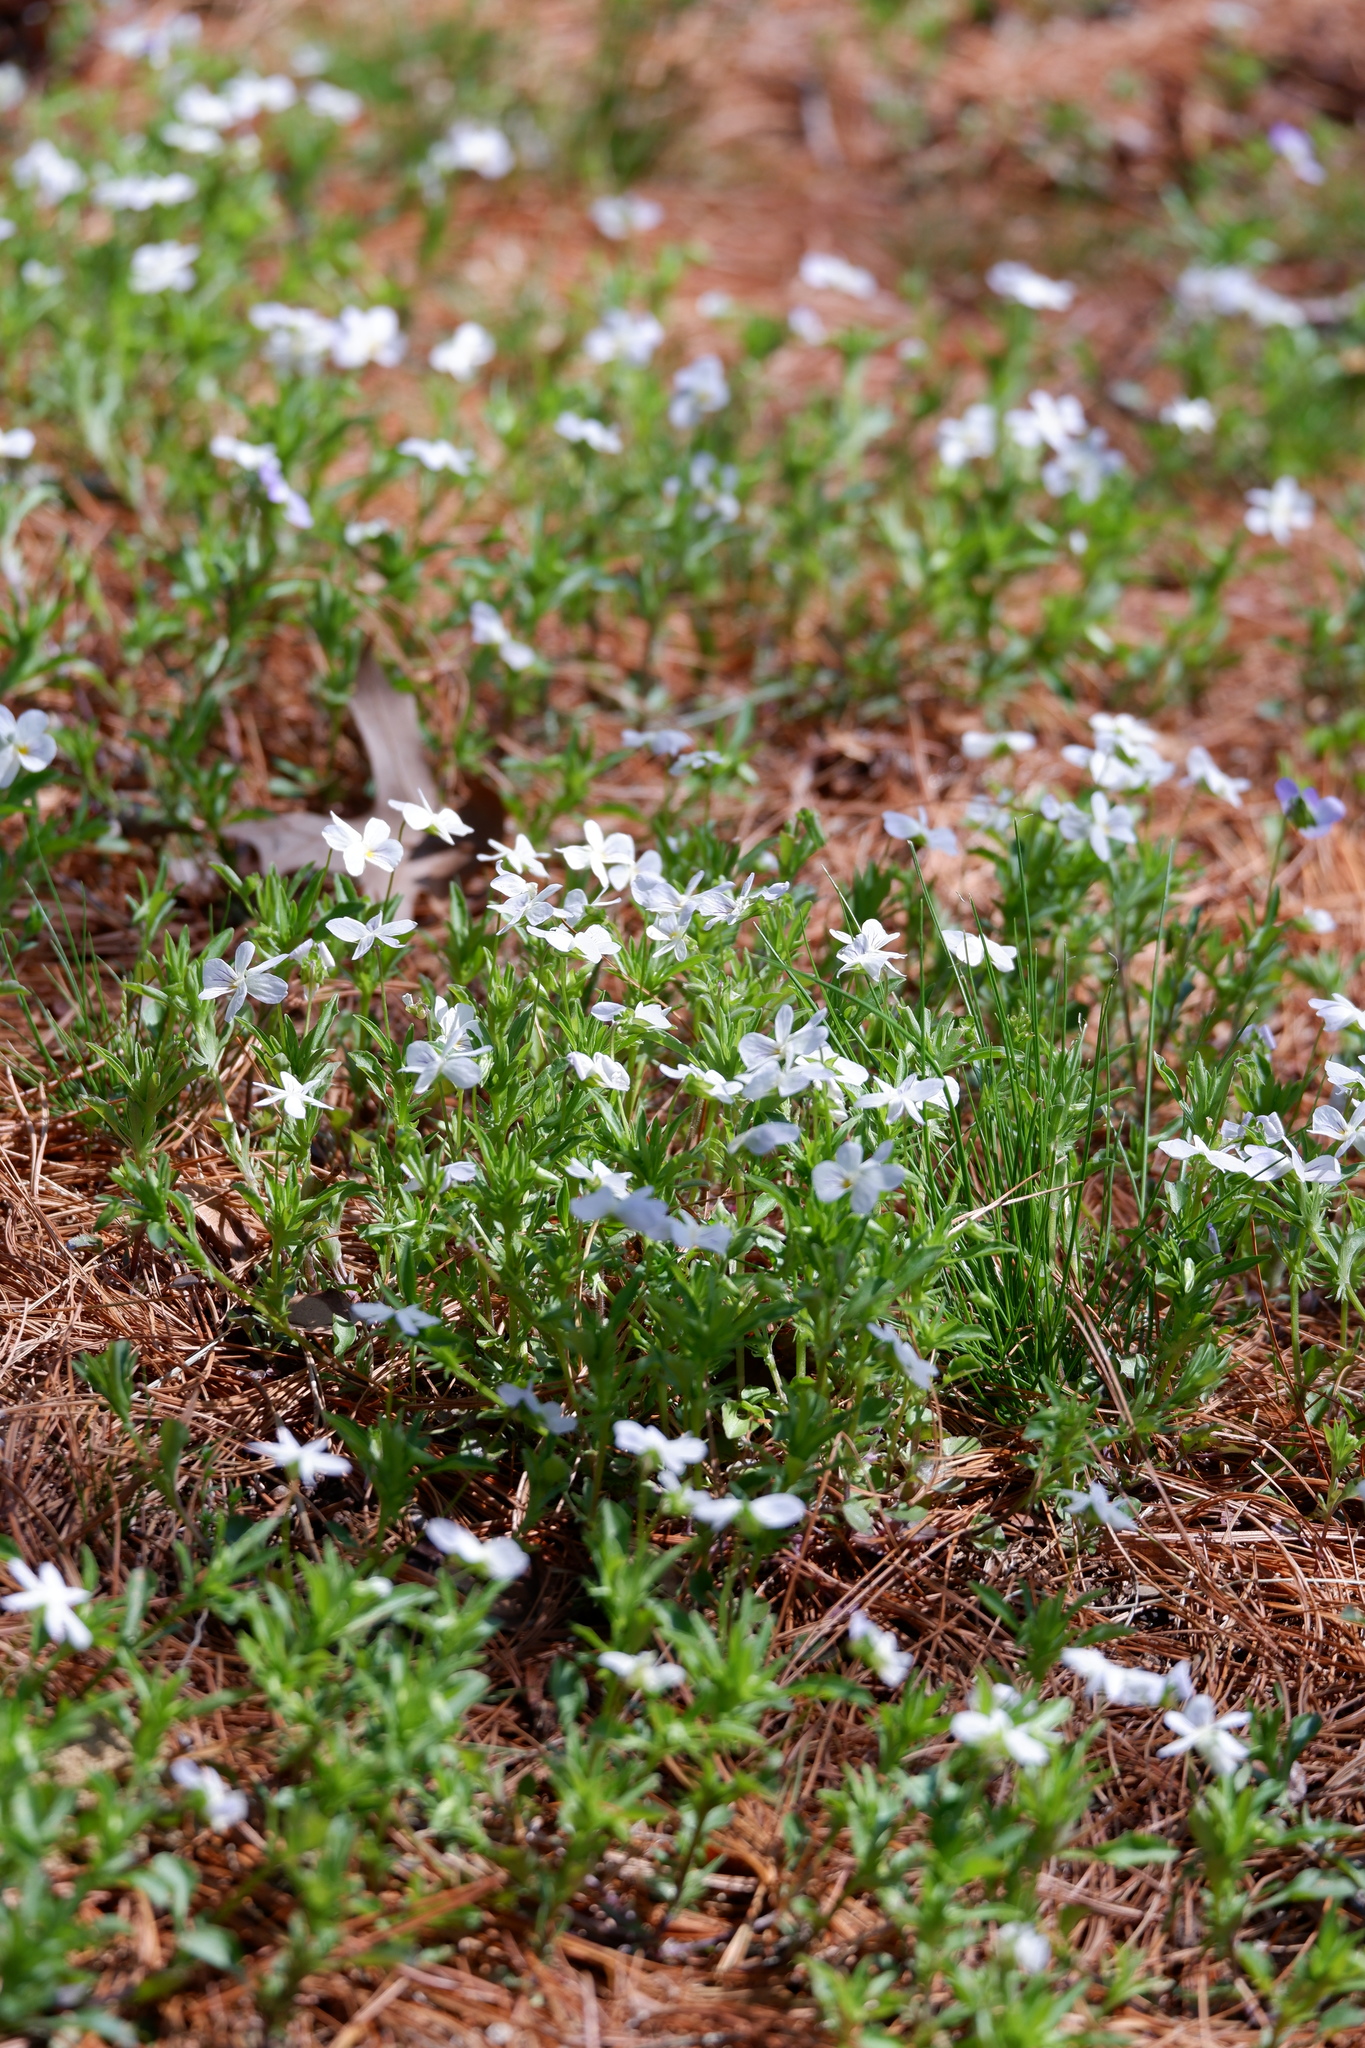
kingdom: Plantae
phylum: Tracheophyta
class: Magnoliopsida
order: Malpighiales
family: Violaceae
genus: Viola
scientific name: Viola rafinesquei
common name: American field pansy
